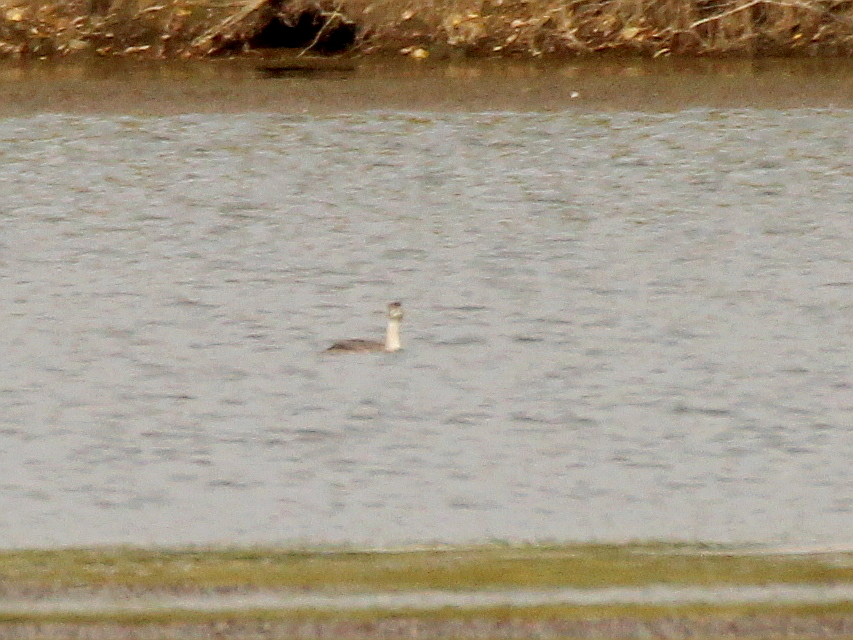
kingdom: Animalia
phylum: Chordata
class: Aves
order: Podicipediformes
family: Podicipedidae
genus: Podiceps
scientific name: Podiceps cristatus
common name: Great crested grebe
